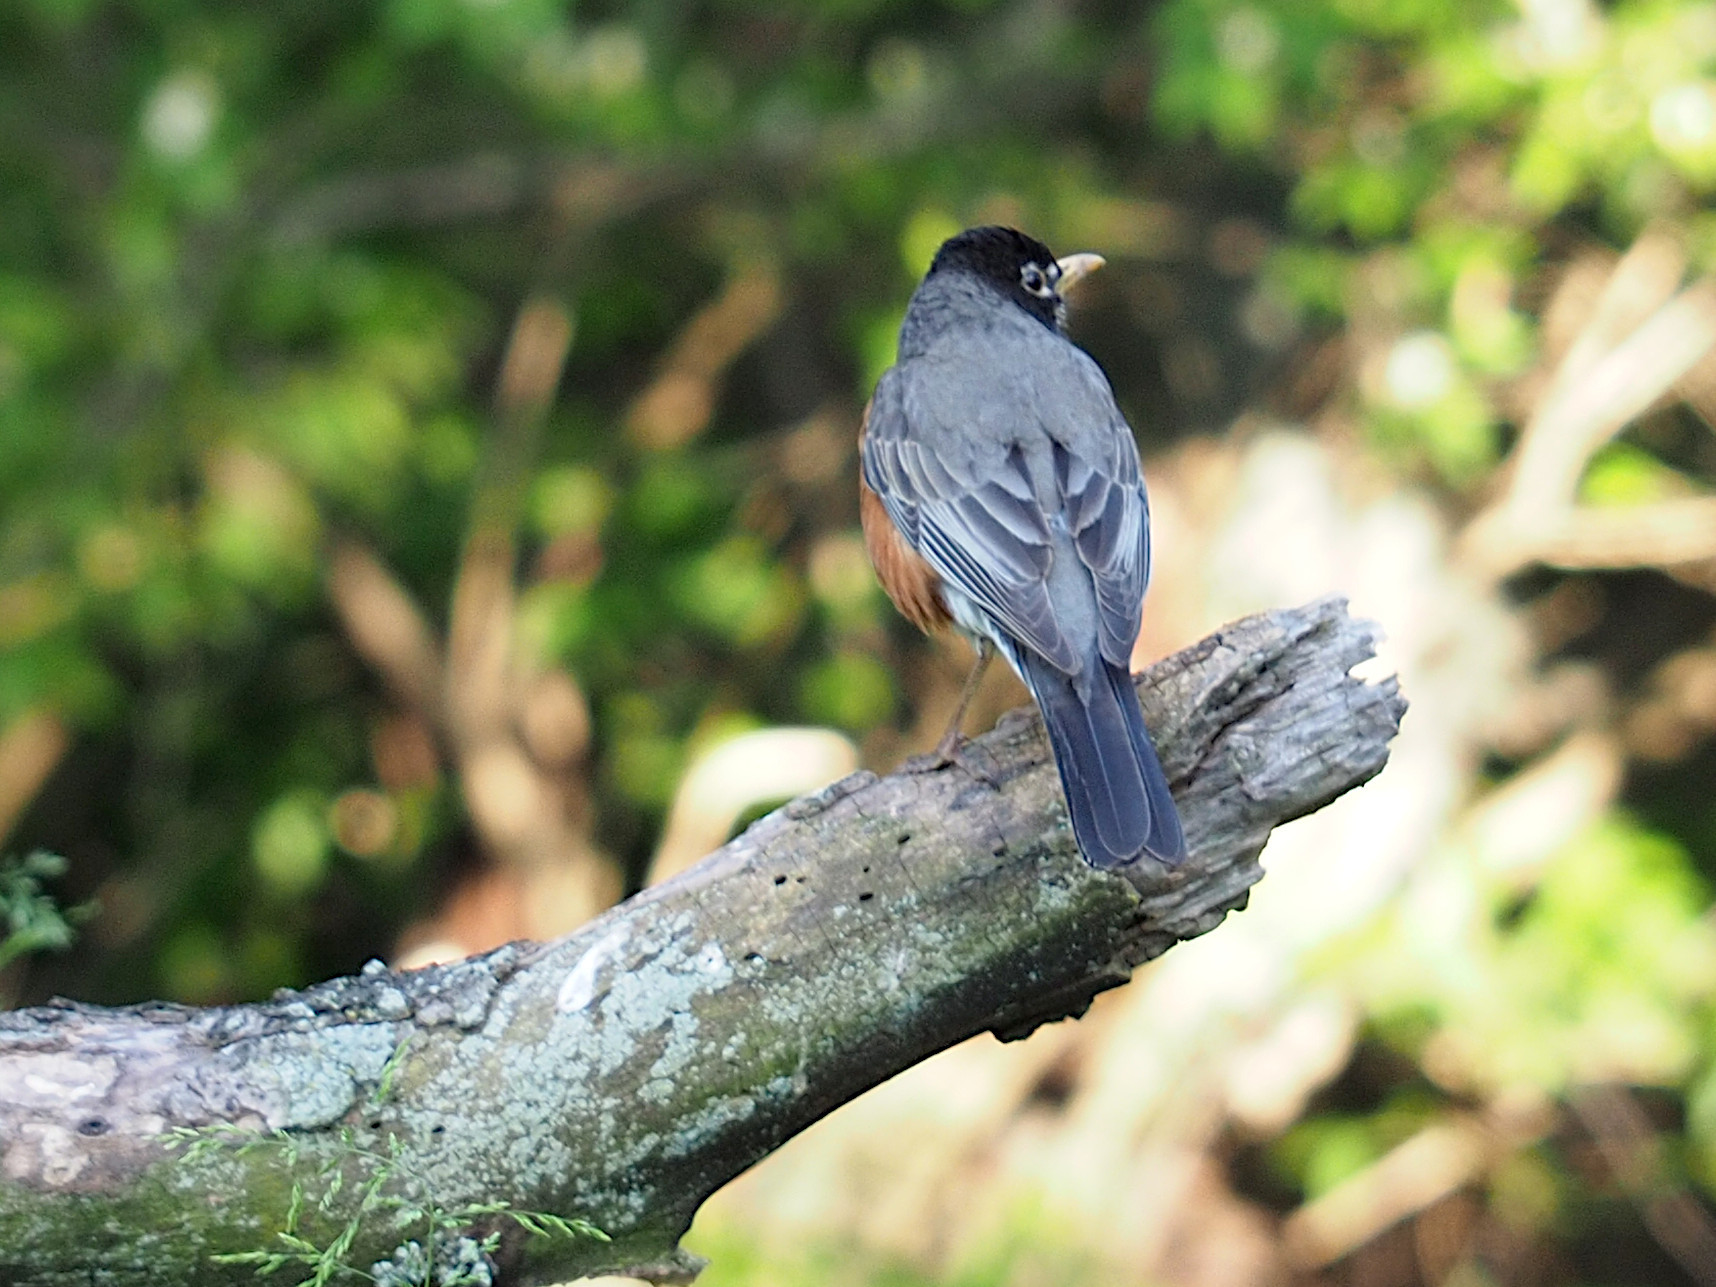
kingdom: Animalia
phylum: Chordata
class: Aves
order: Passeriformes
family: Turdidae
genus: Turdus
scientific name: Turdus migratorius
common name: American robin
